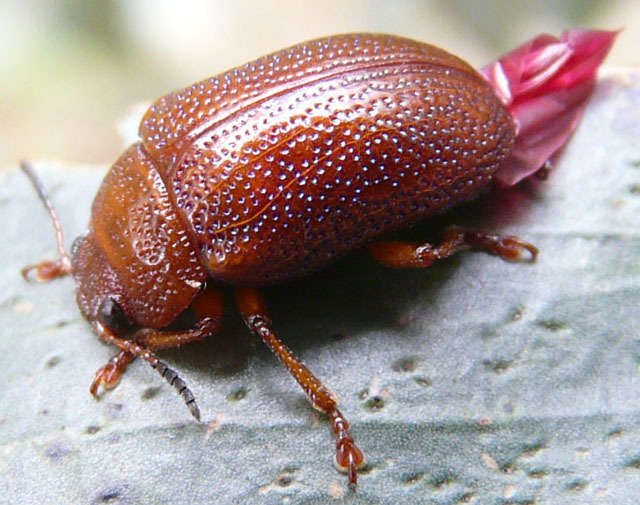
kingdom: Animalia
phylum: Arthropoda
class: Insecta
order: Coleoptera
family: Chrysomelidae
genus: Calomela
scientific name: Calomela
